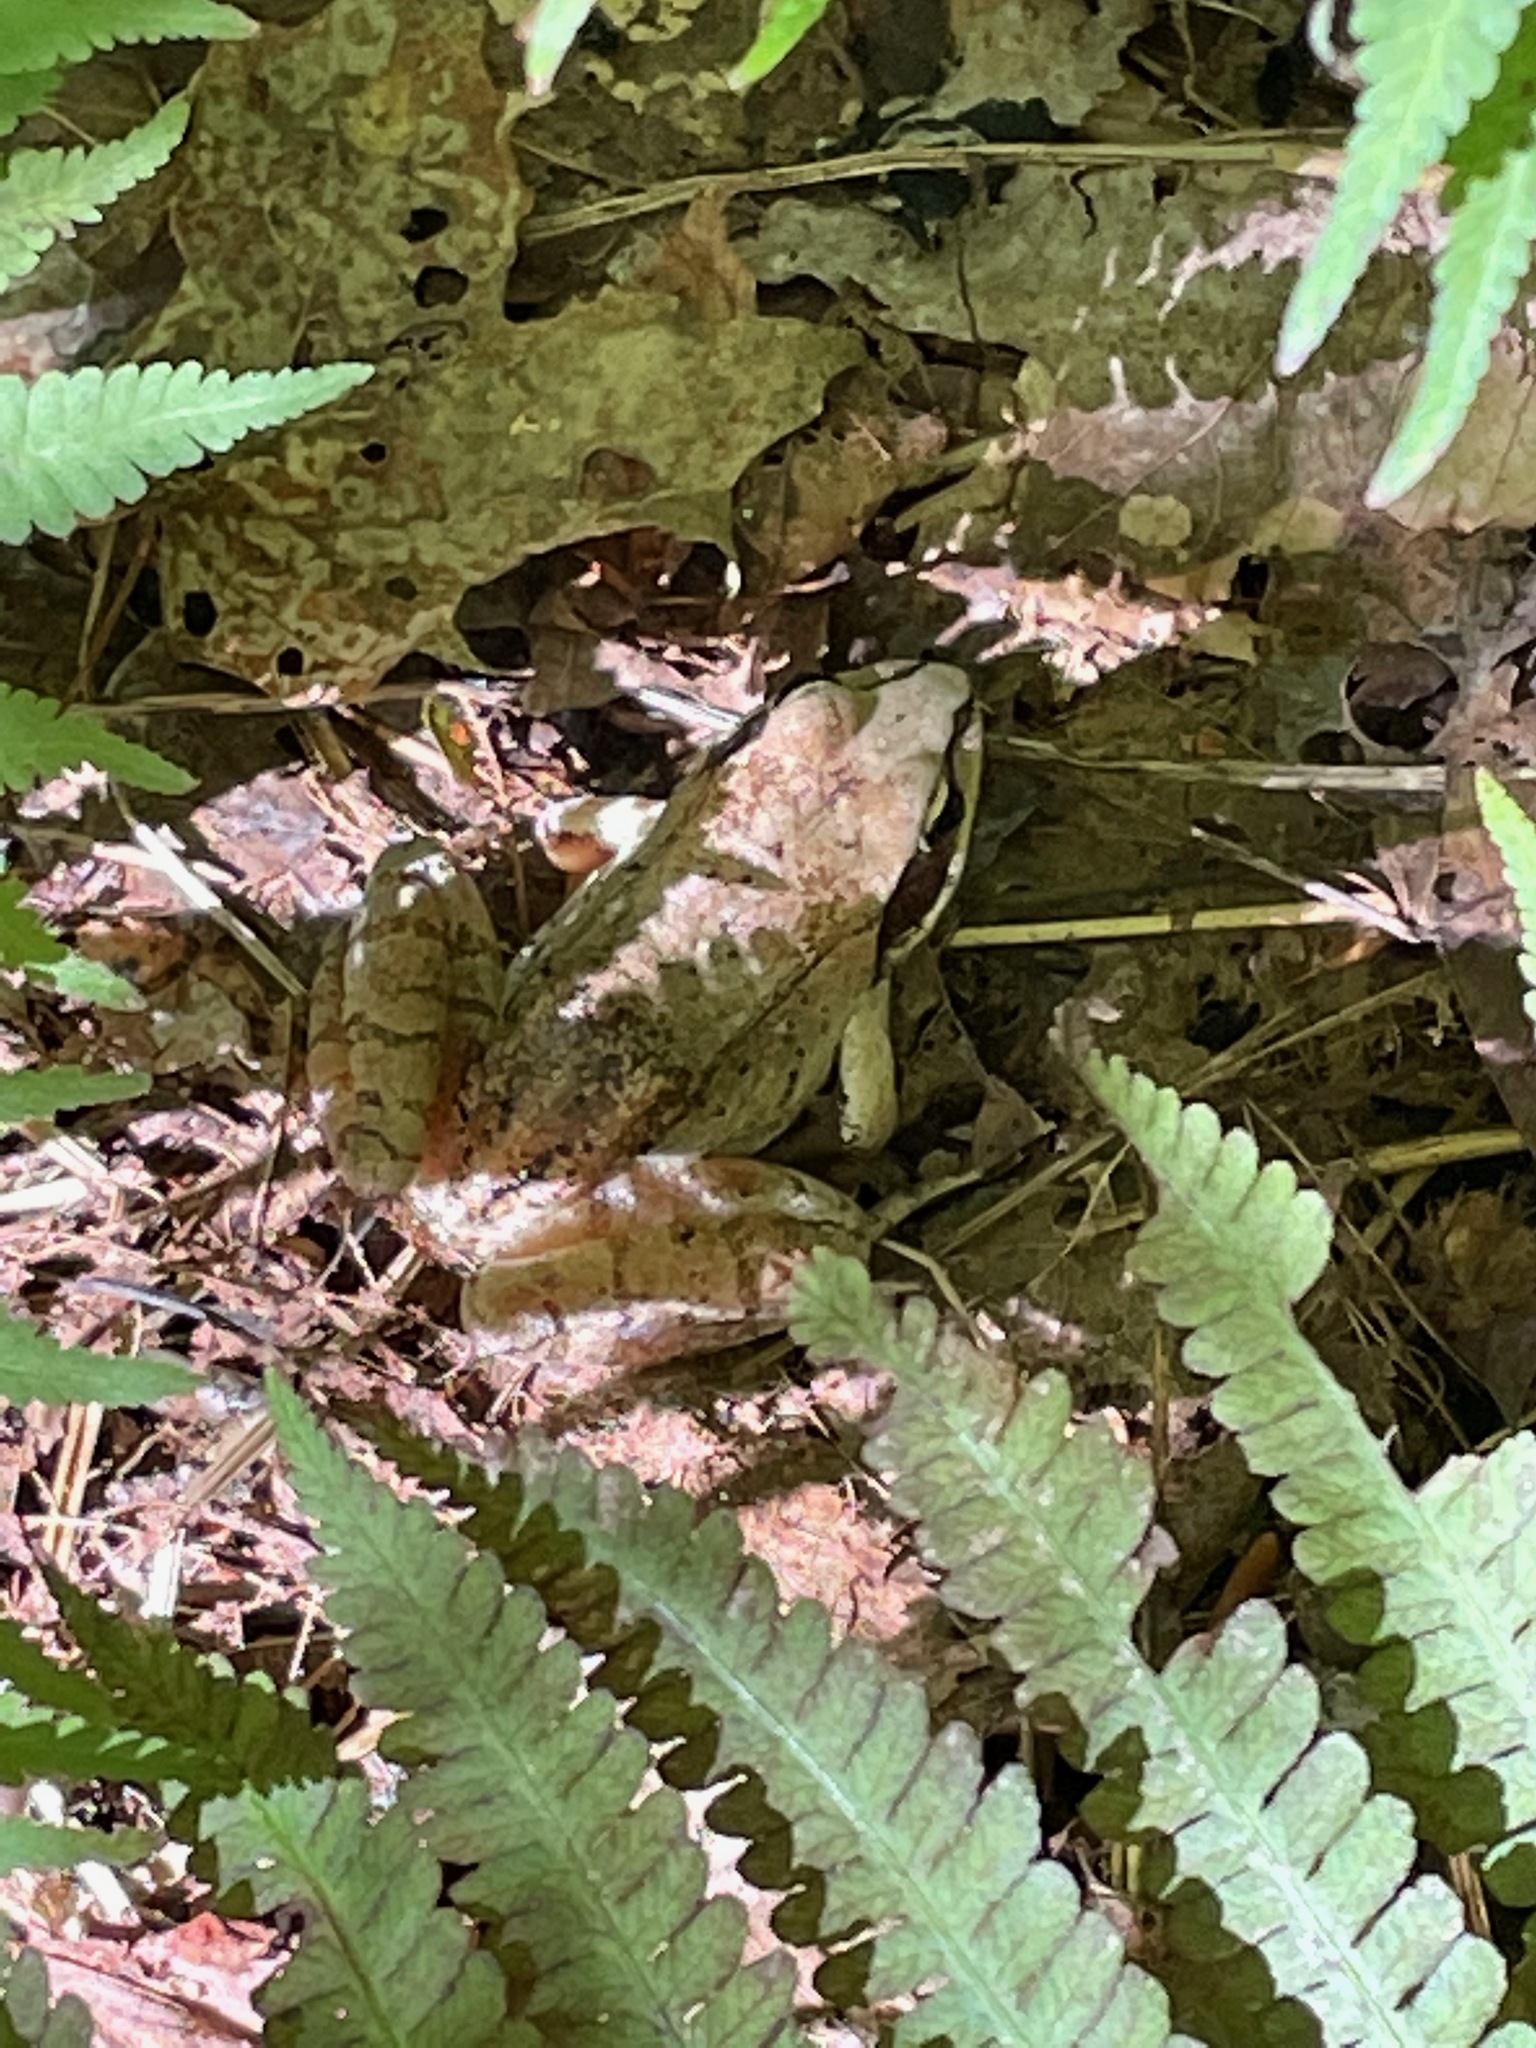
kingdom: Animalia
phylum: Chordata
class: Amphibia
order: Anura
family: Ranidae
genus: Lithobates
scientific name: Lithobates sylvaticus
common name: Wood frog
